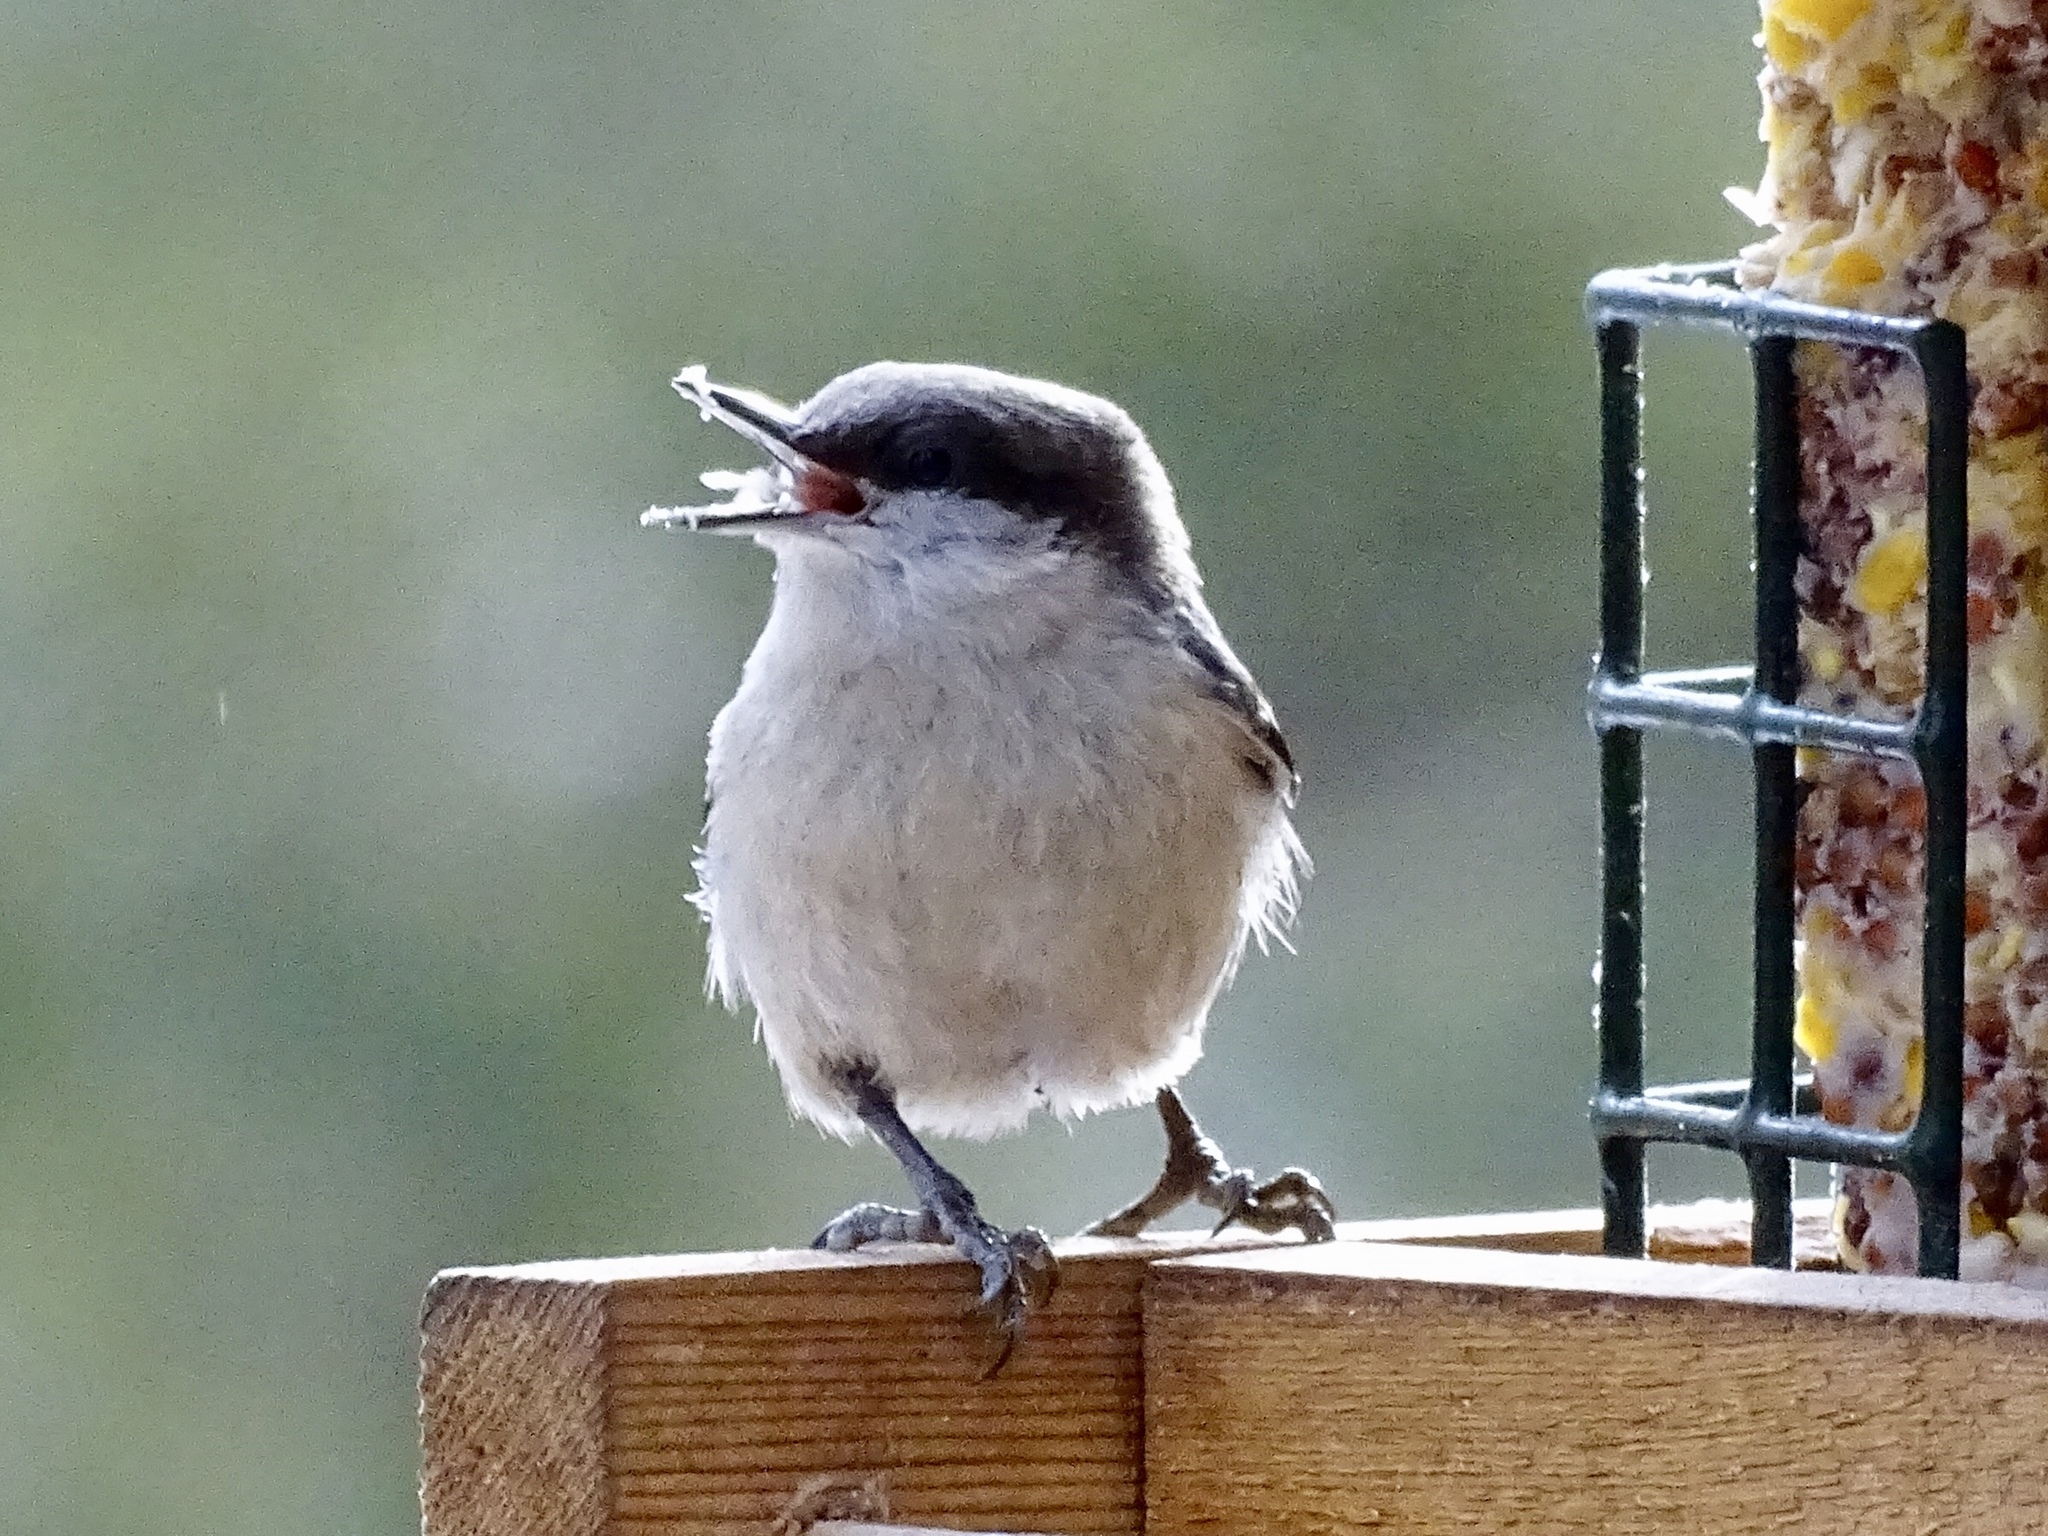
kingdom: Animalia
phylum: Chordata
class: Aves
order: Passeriformes
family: Sittidae
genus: Sitta
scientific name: Sitta pygmaea
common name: Pygmy nuthatch
